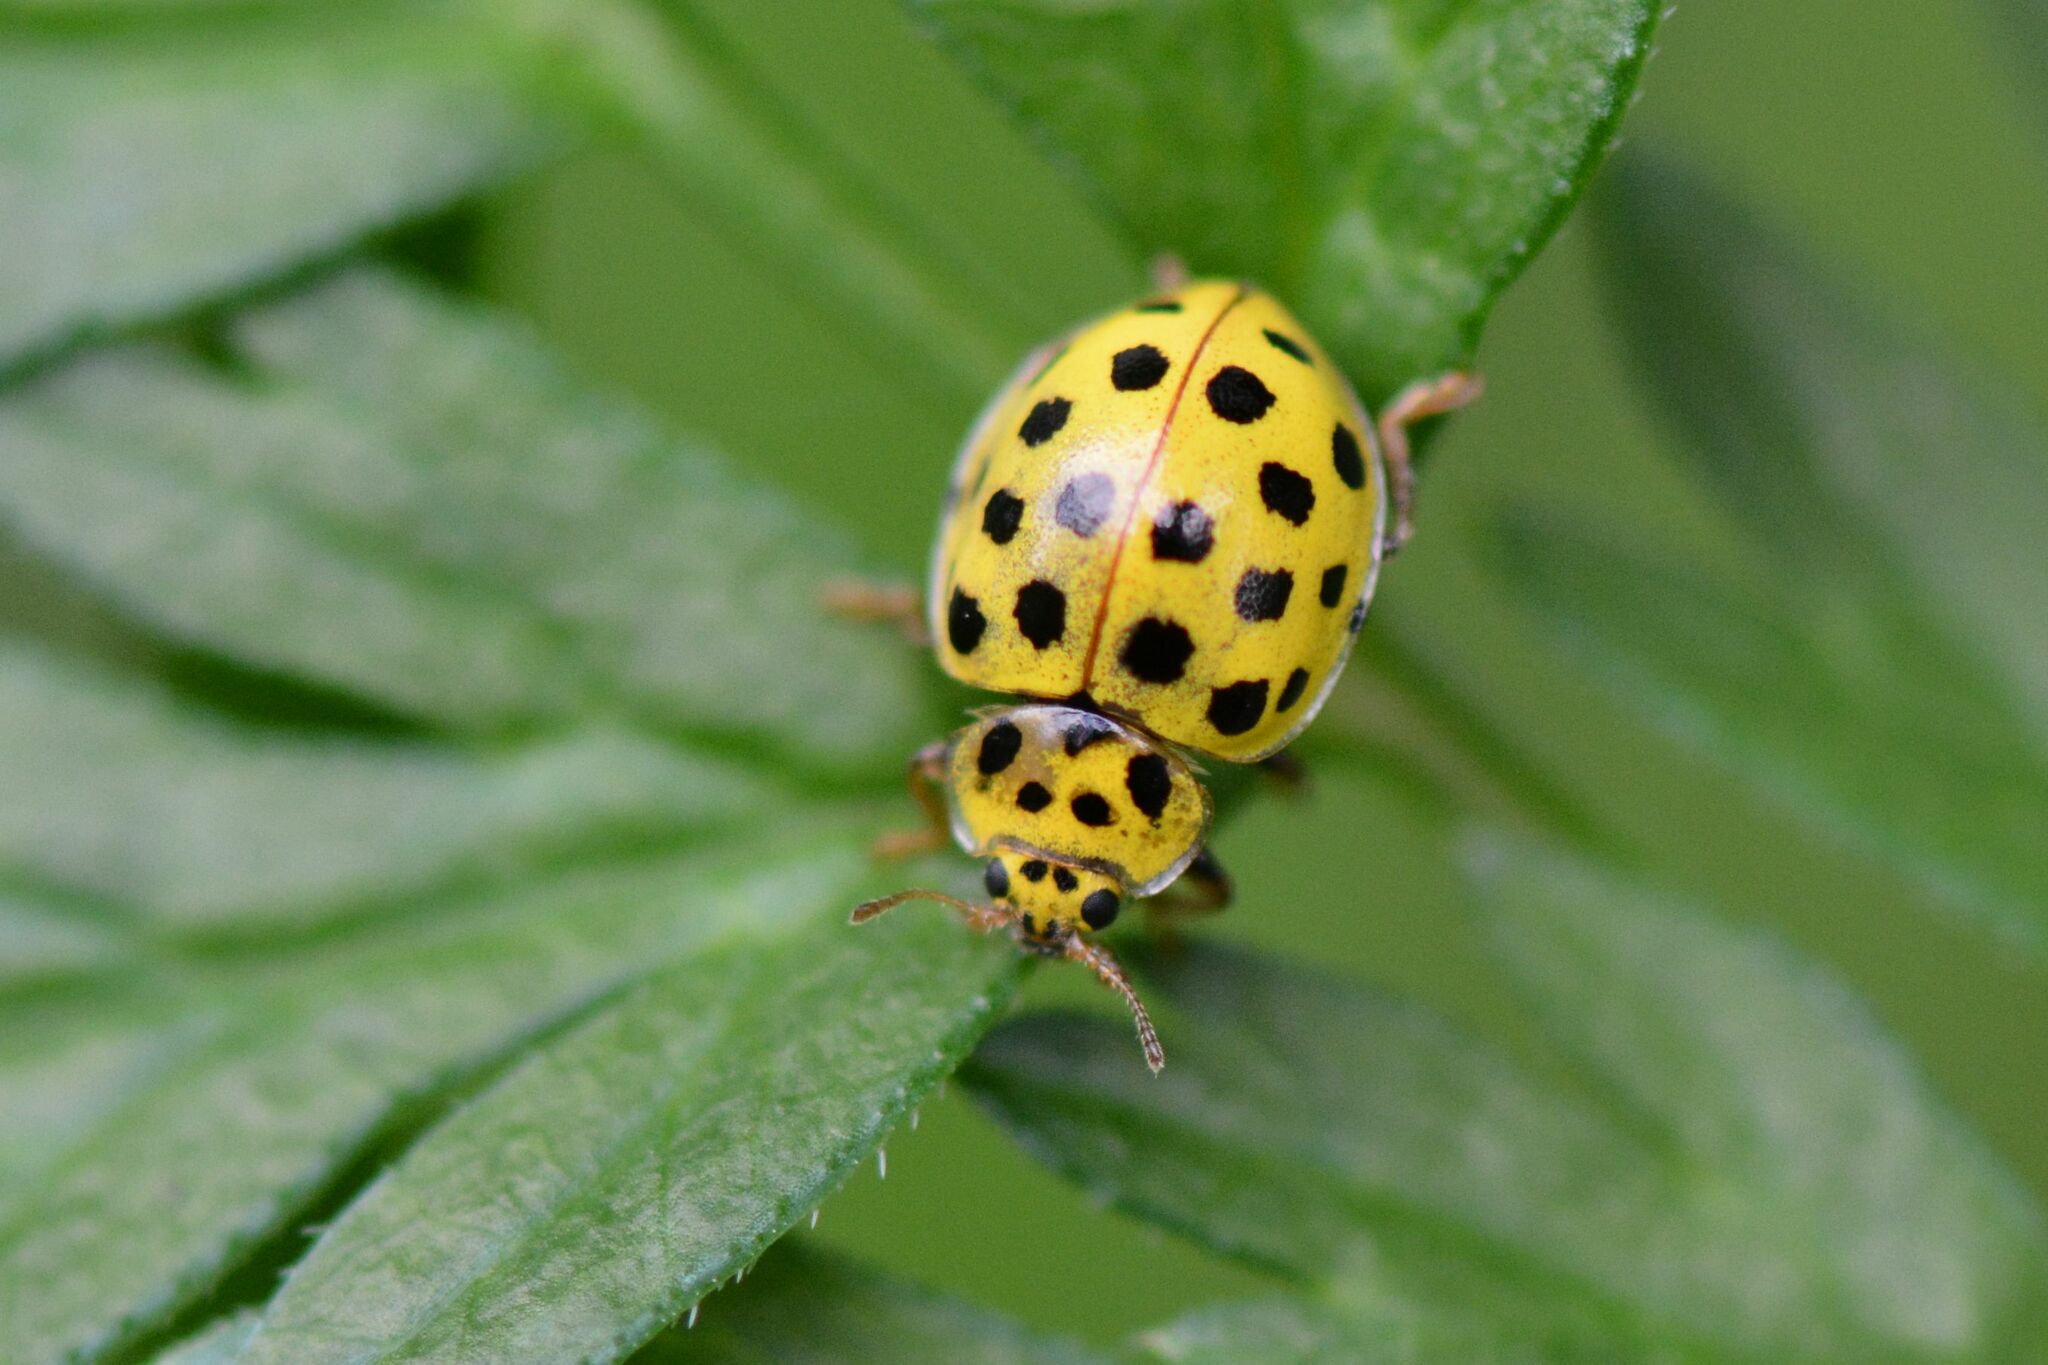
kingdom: Animalia
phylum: Arthropoda
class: Insecta
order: Coleoptera
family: Coccinellidae
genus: Psyllobora
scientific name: Psyllobora vigintiduopunctata
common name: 22-spot ladybird
